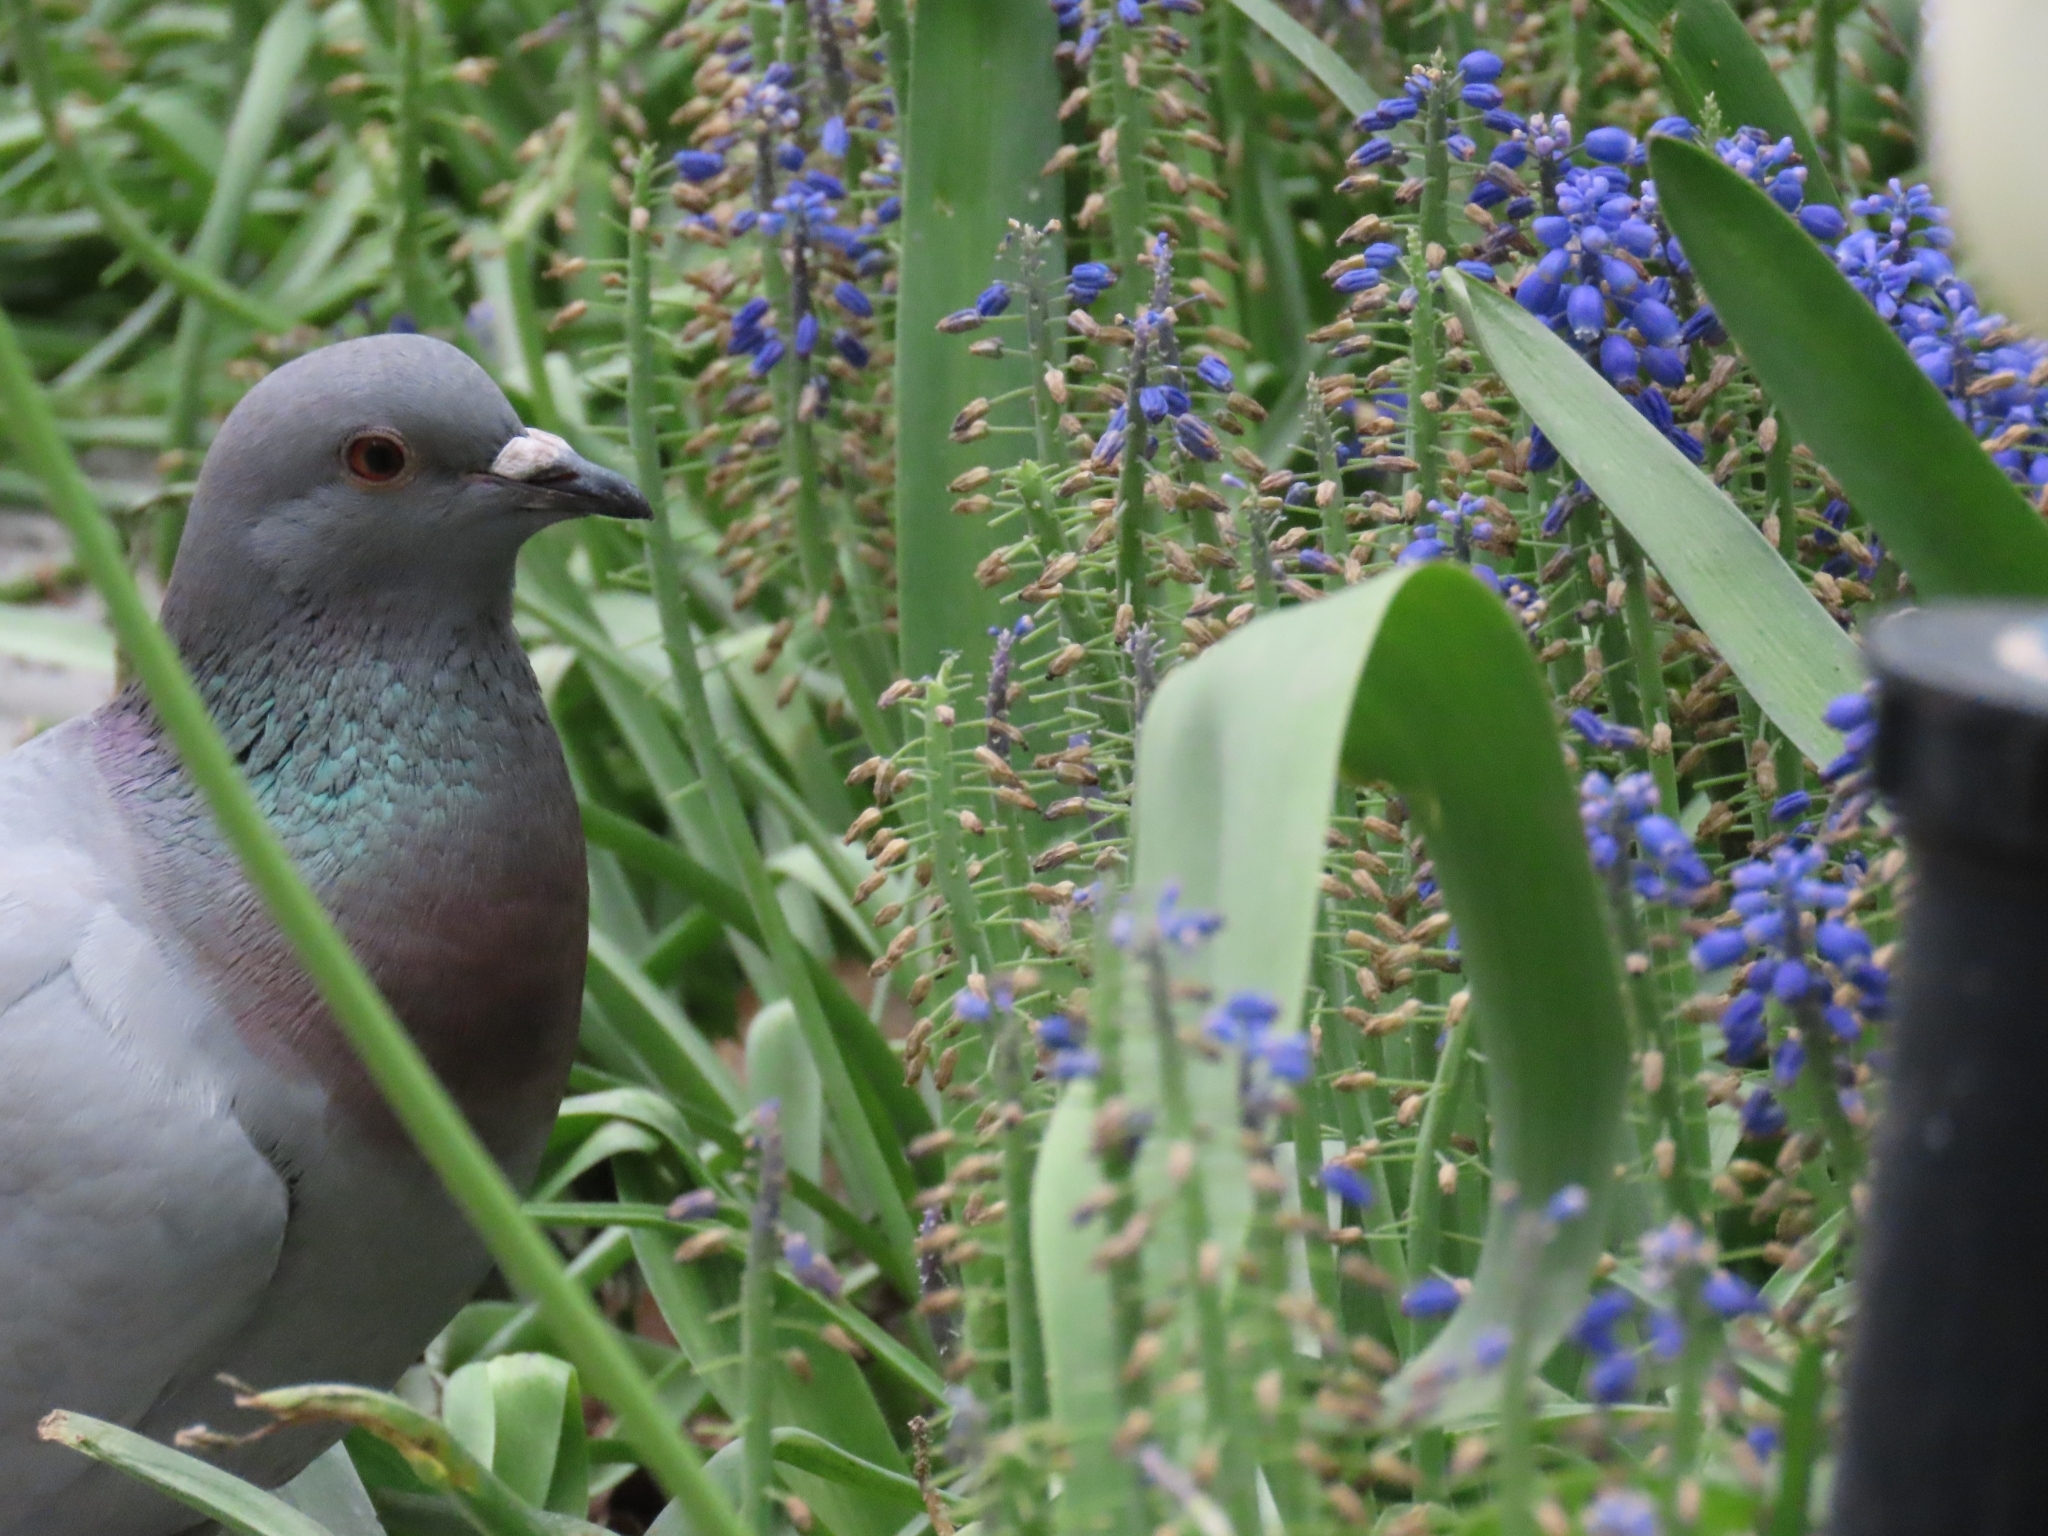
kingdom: Animalia
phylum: Chordata
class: Aves
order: Columbiformes
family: Columbidae
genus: Columba
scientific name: Columba livia
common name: Rock pigeon
